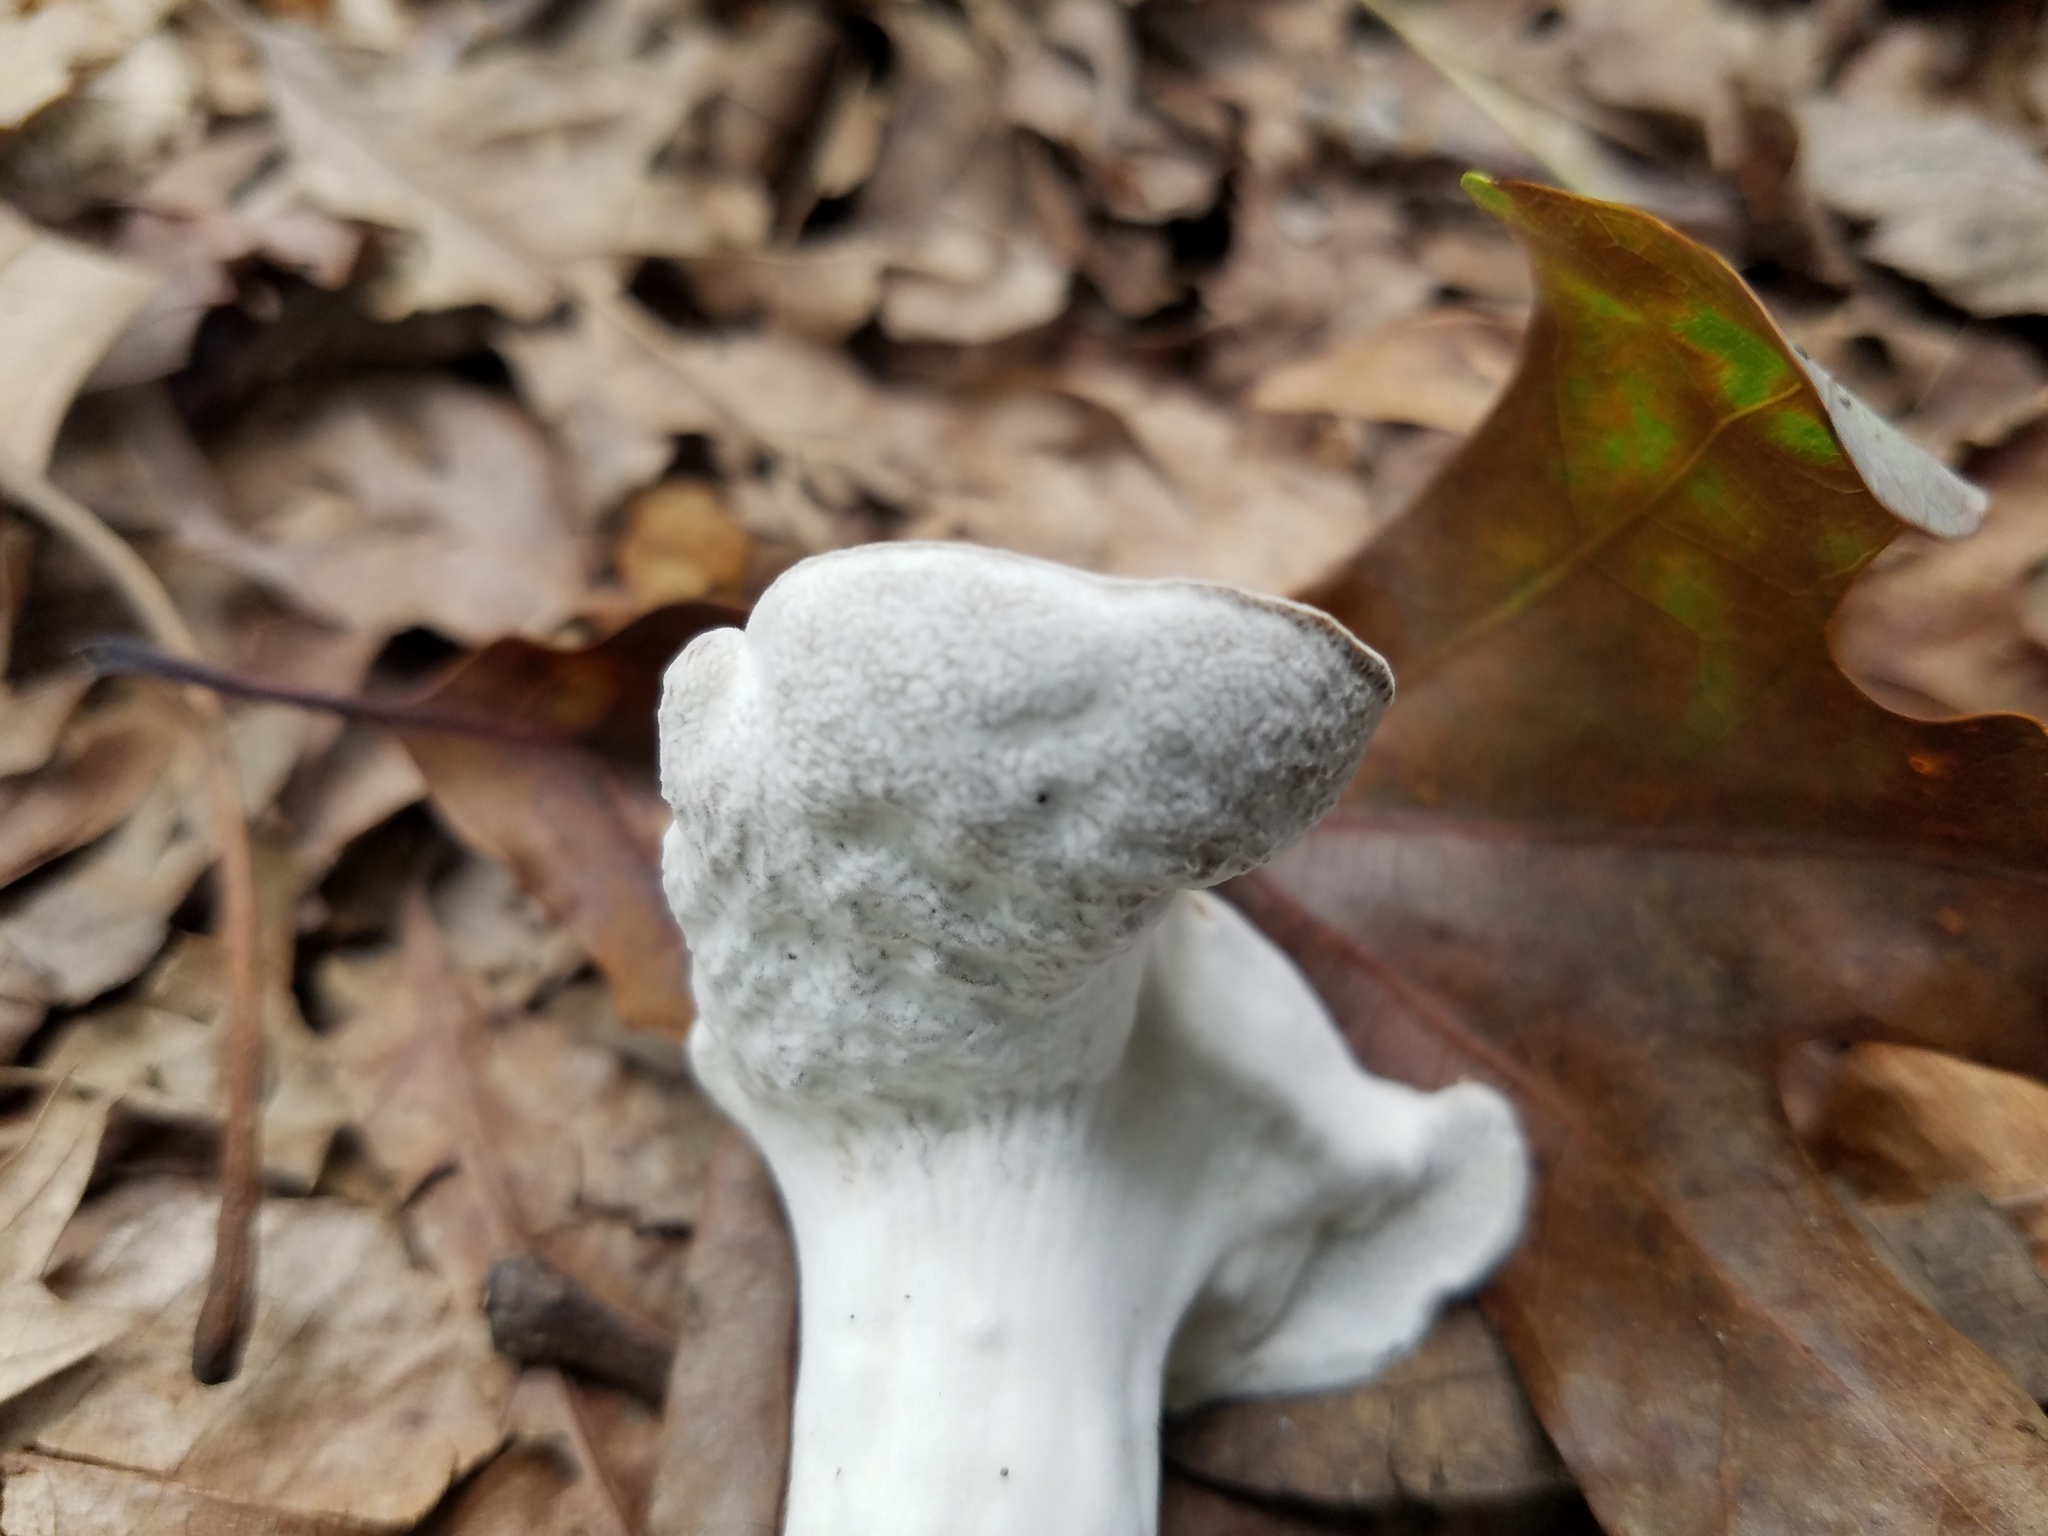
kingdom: Fungi
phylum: Ascomycota
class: Sordariomycetes
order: Hypocreales
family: Hypocreaceae
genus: Hypomyces
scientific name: Hypomyces chrysospermus
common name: Bolete mould
